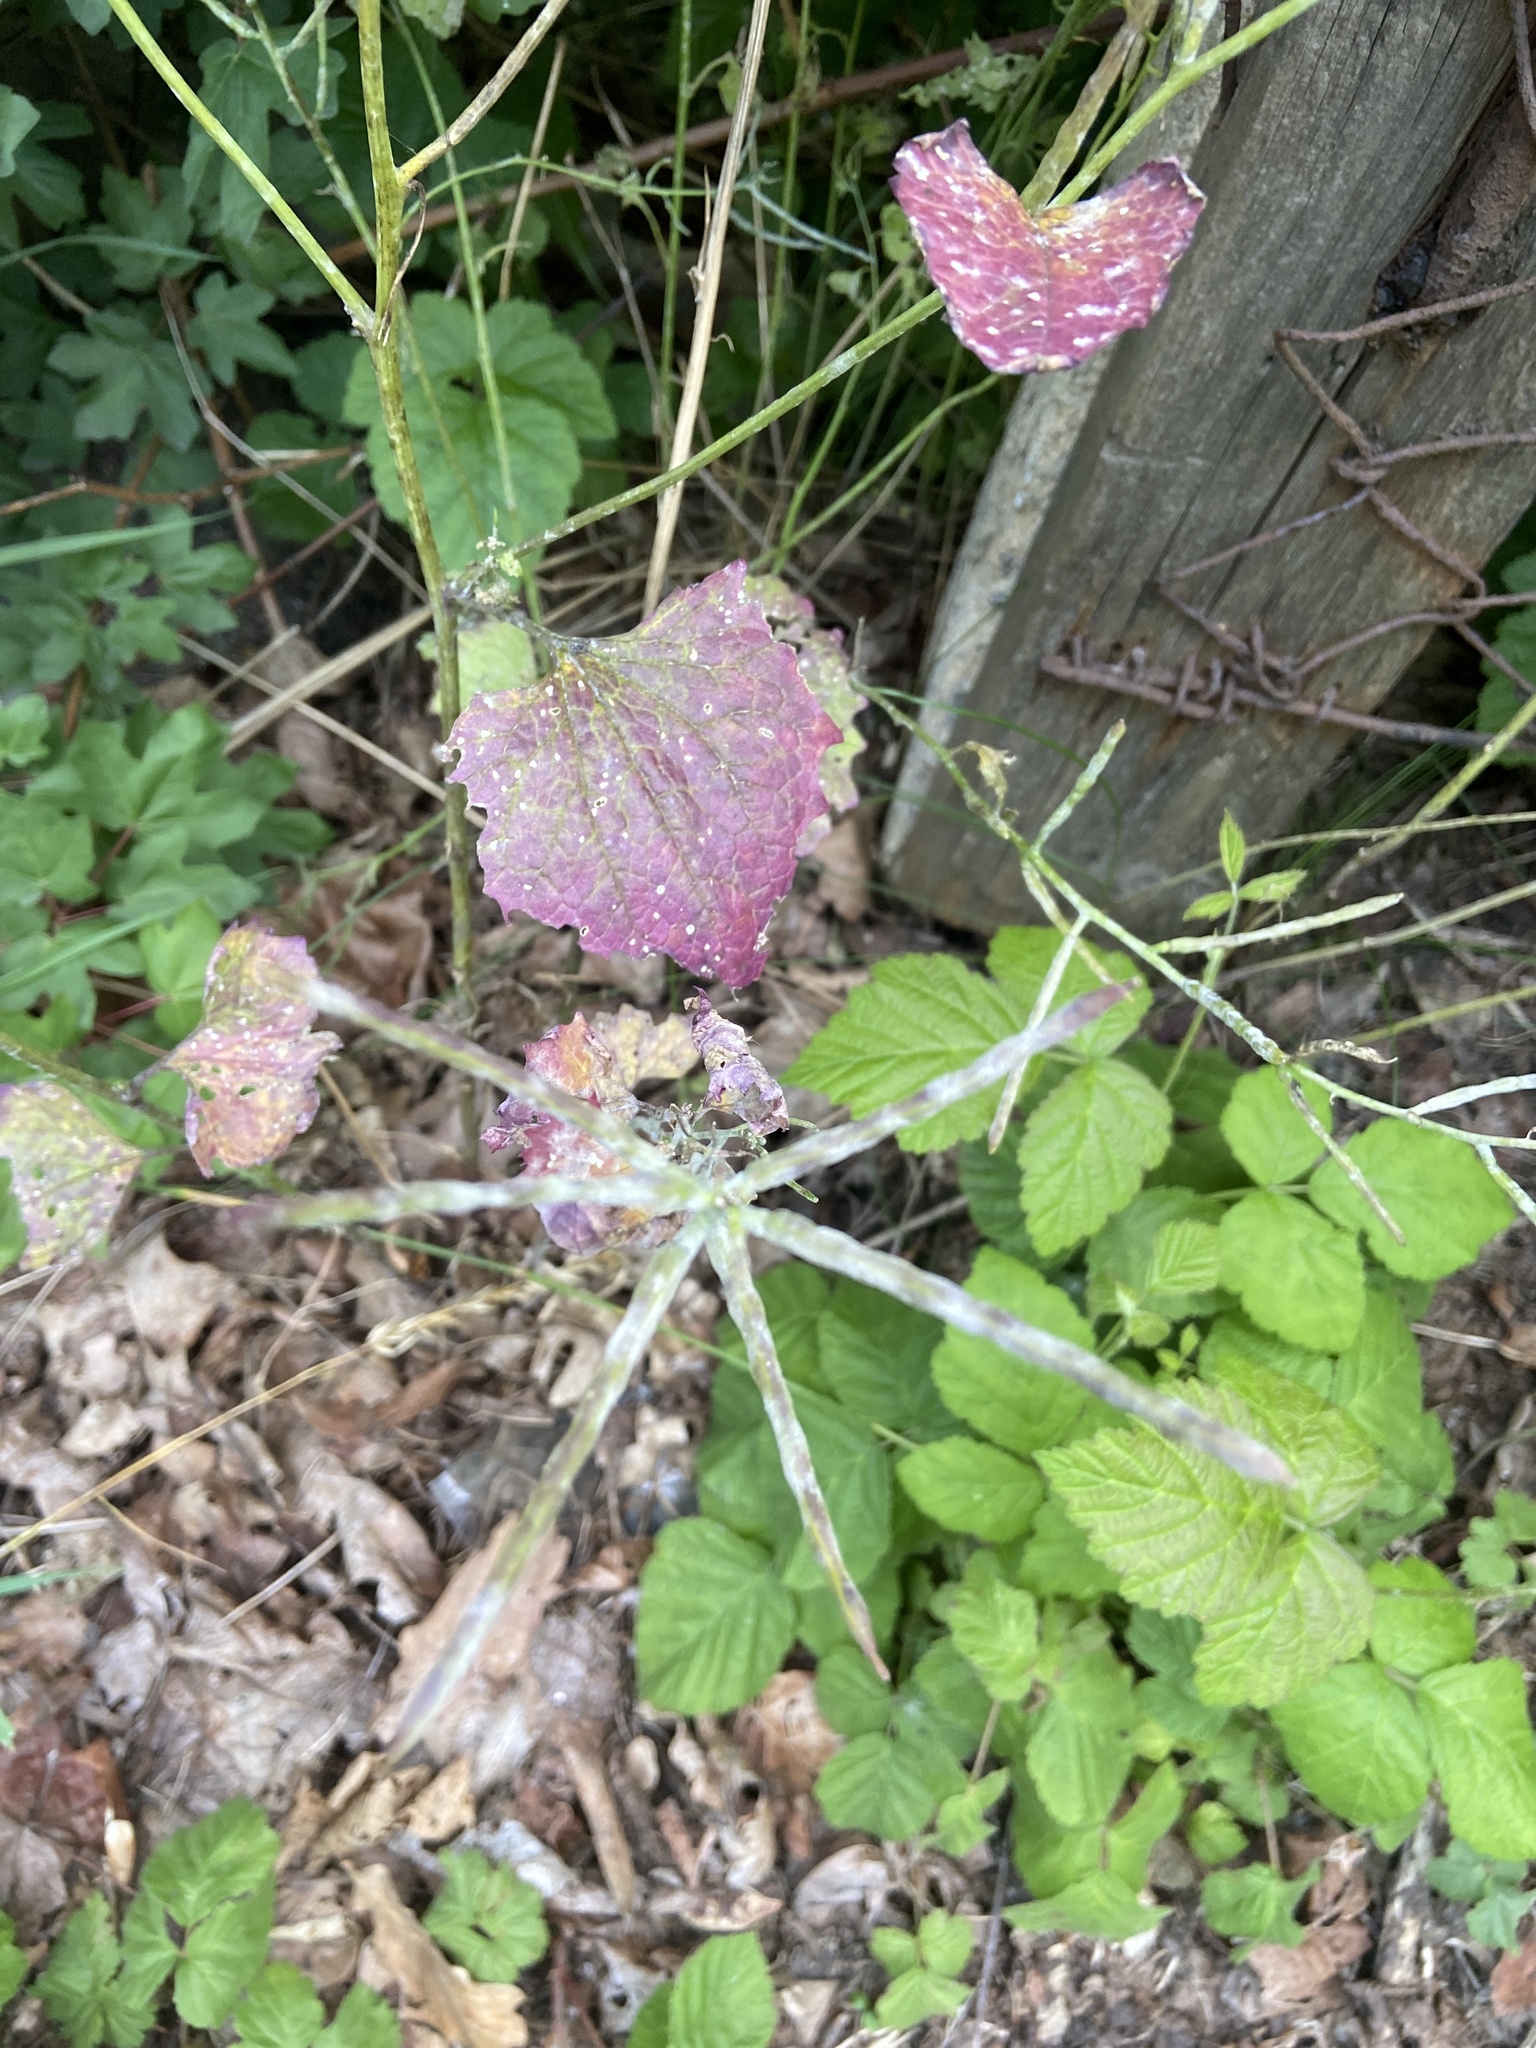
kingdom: Plantae
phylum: Tracheophyta
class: Magnoliopsida
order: Brassicales
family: Brassicaceae
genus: Alliaria
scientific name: Alliaria petiolata
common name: Garlic mustard
